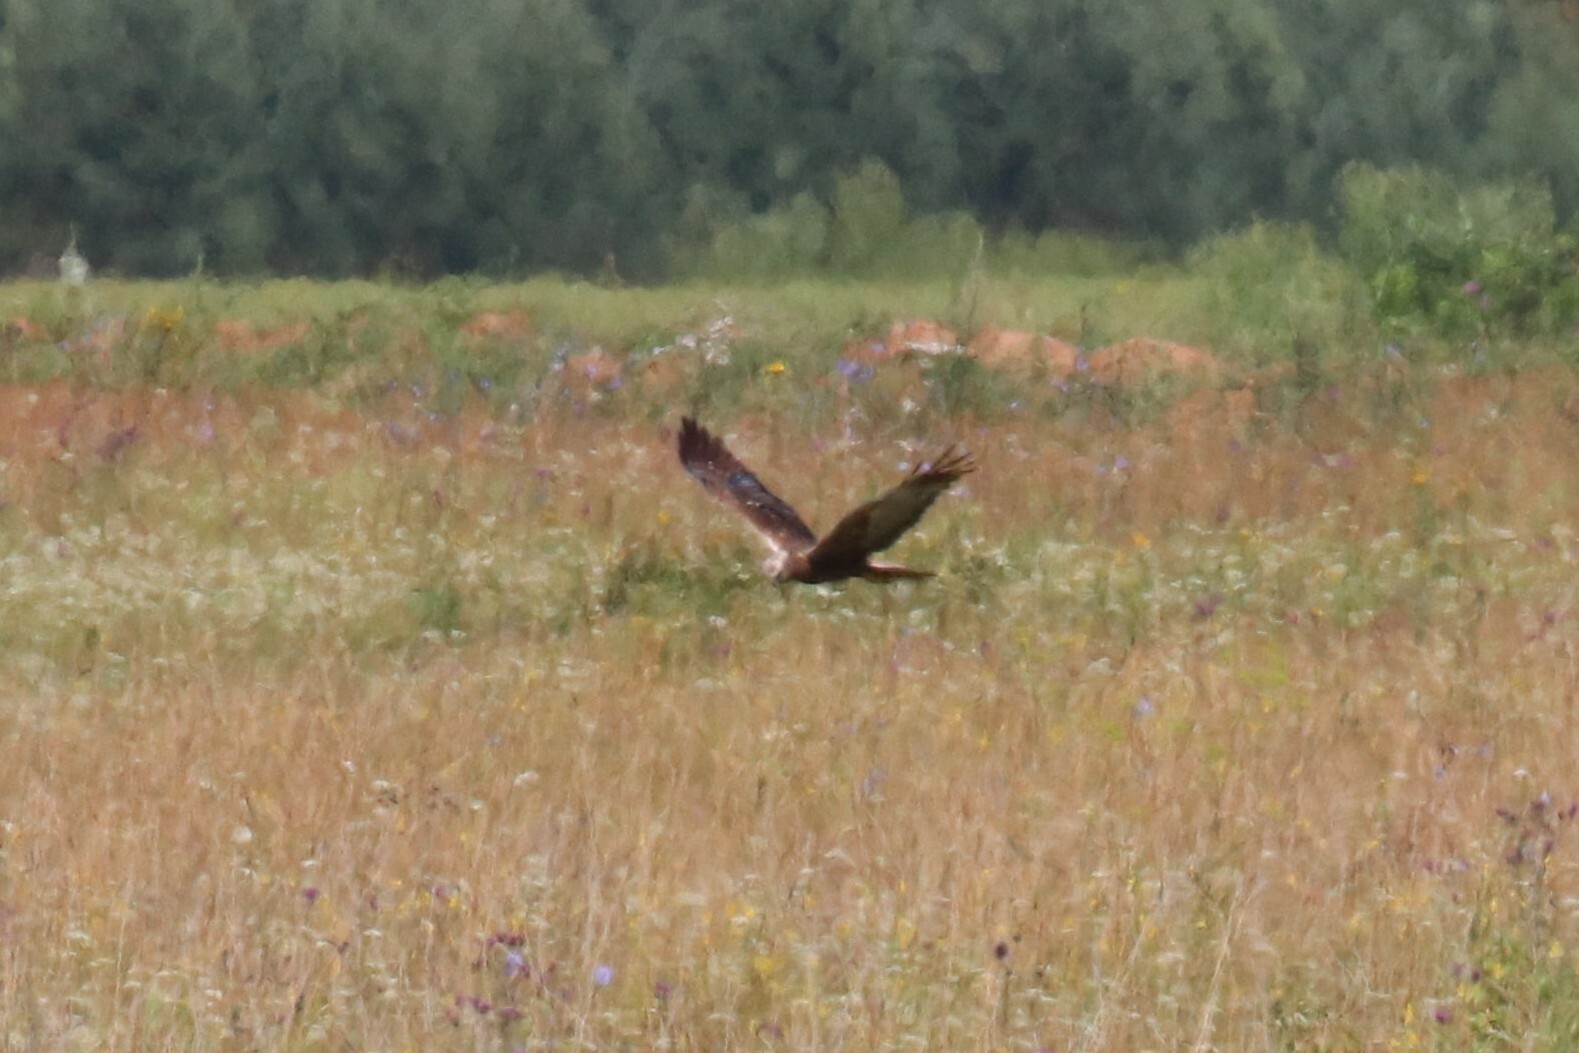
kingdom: Animalia
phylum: Chordata
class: Aves
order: Accipitriformes
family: Accipitridae
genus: Circus
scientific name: Circus aeruginosus
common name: Western marsh harrier
